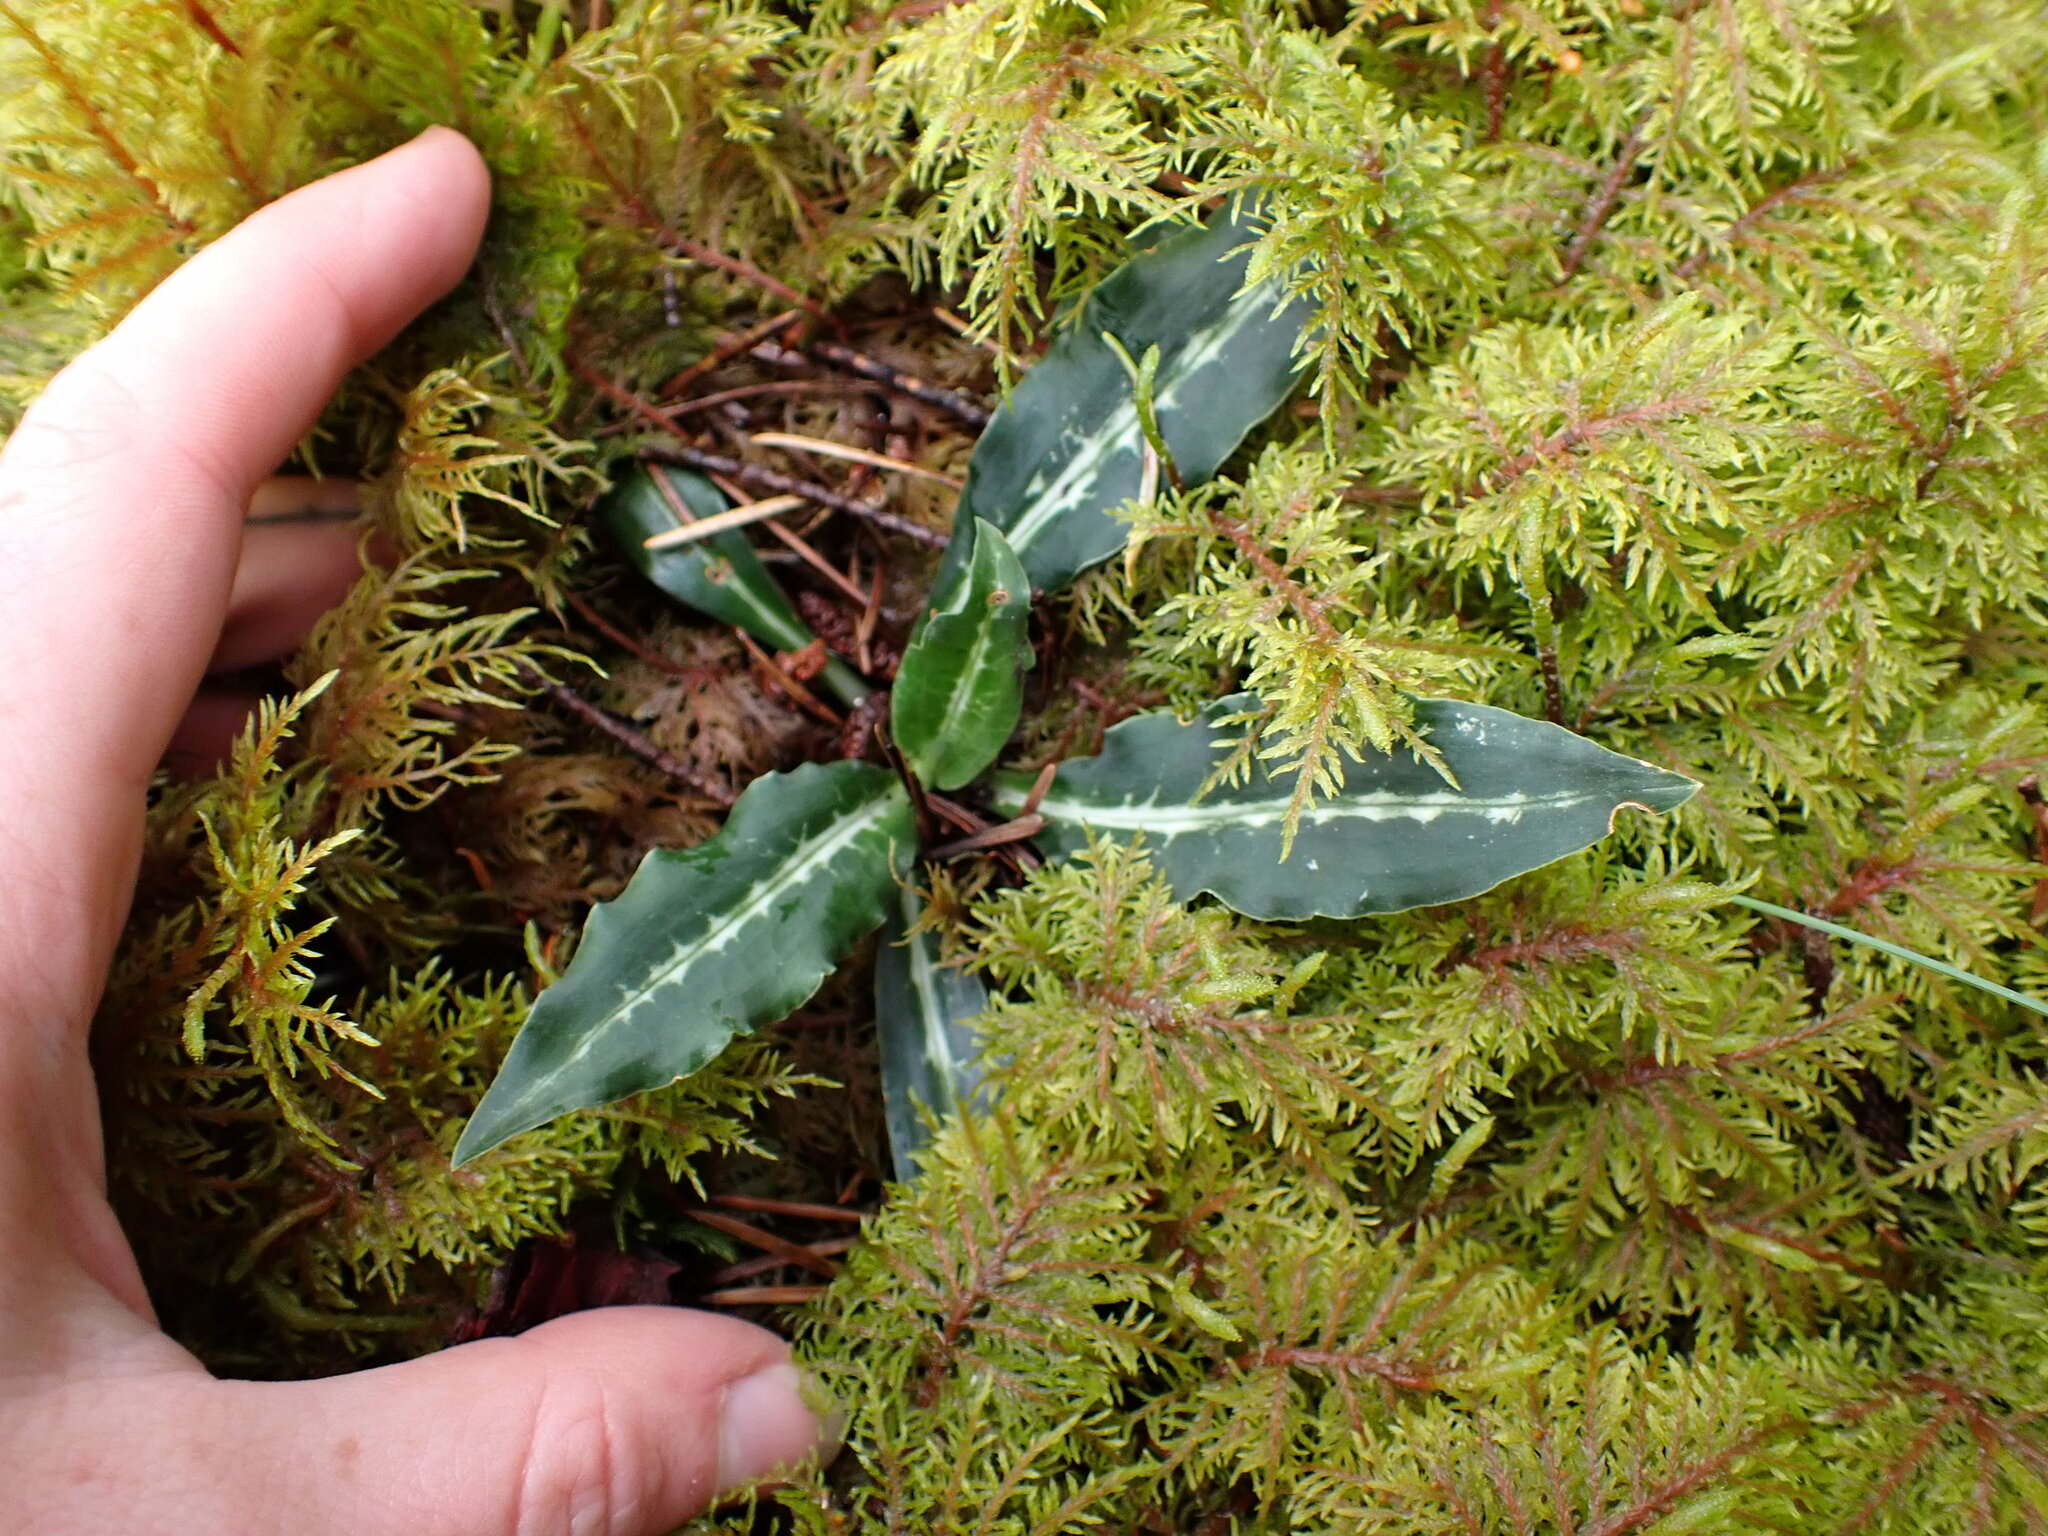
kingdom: Plantae
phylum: Tracheophyta
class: Liliopsida
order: Asparagales
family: Orchidaceae
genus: Goodyera
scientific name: Goodyera oblongifolia
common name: Giant rattlesnake-plantain
